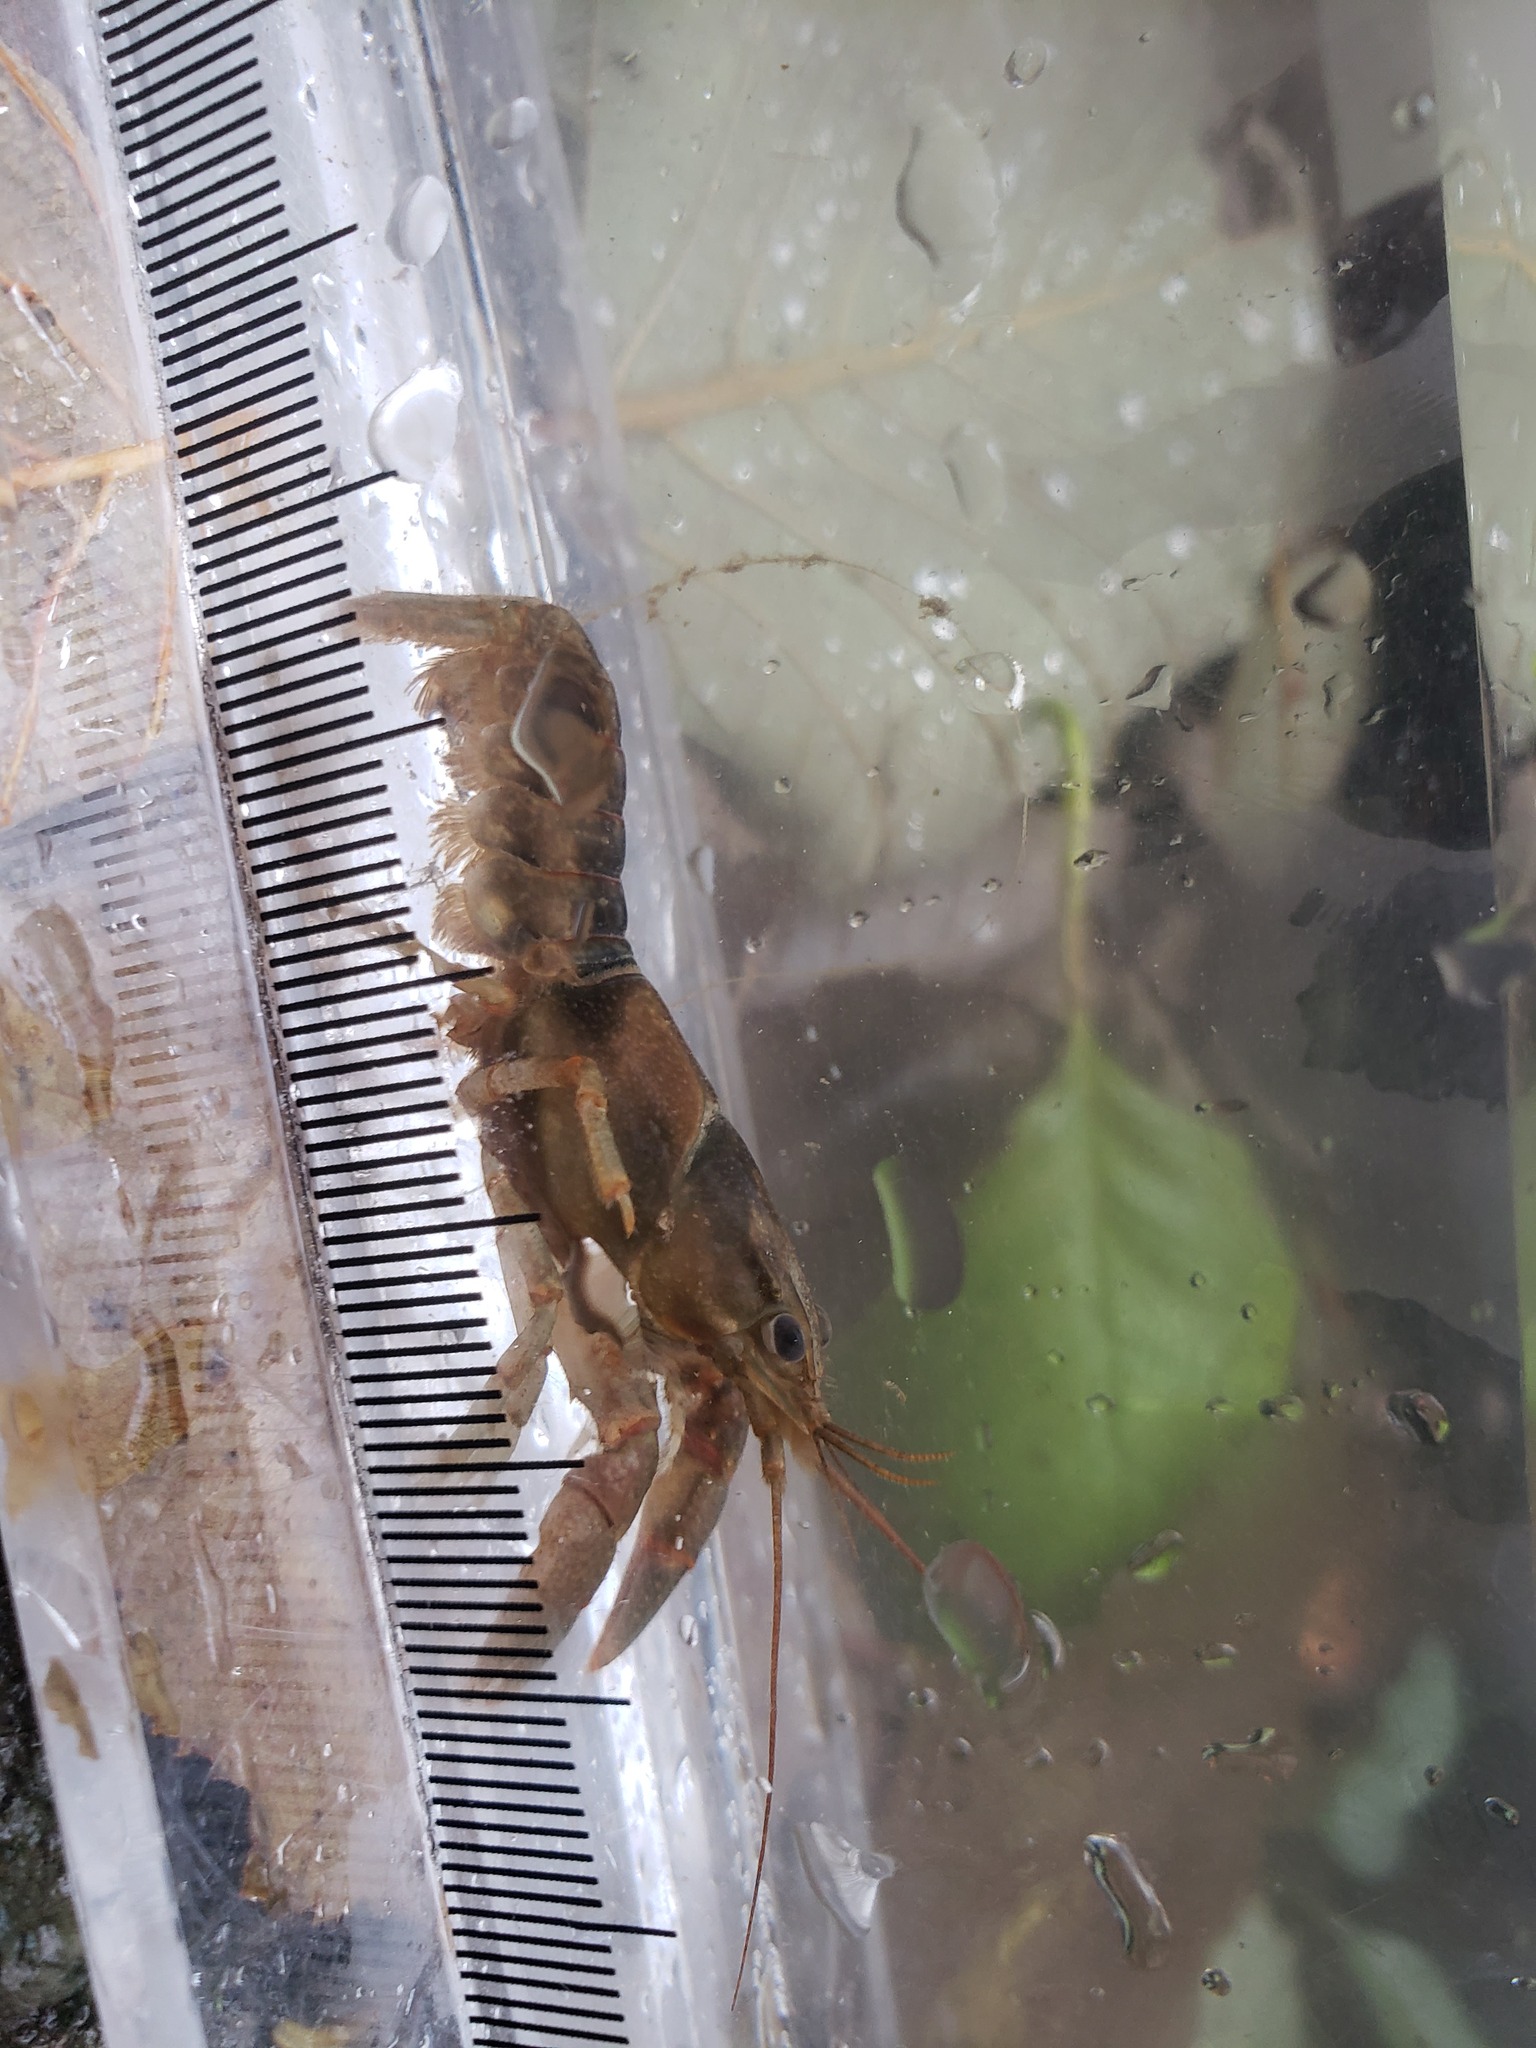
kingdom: Animalia
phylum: Arthropoda
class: Malacostraca
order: Decapoda
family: Cambaridae
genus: Faxonius
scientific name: Faxonius propinquus
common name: Northern clearwater crayfish
